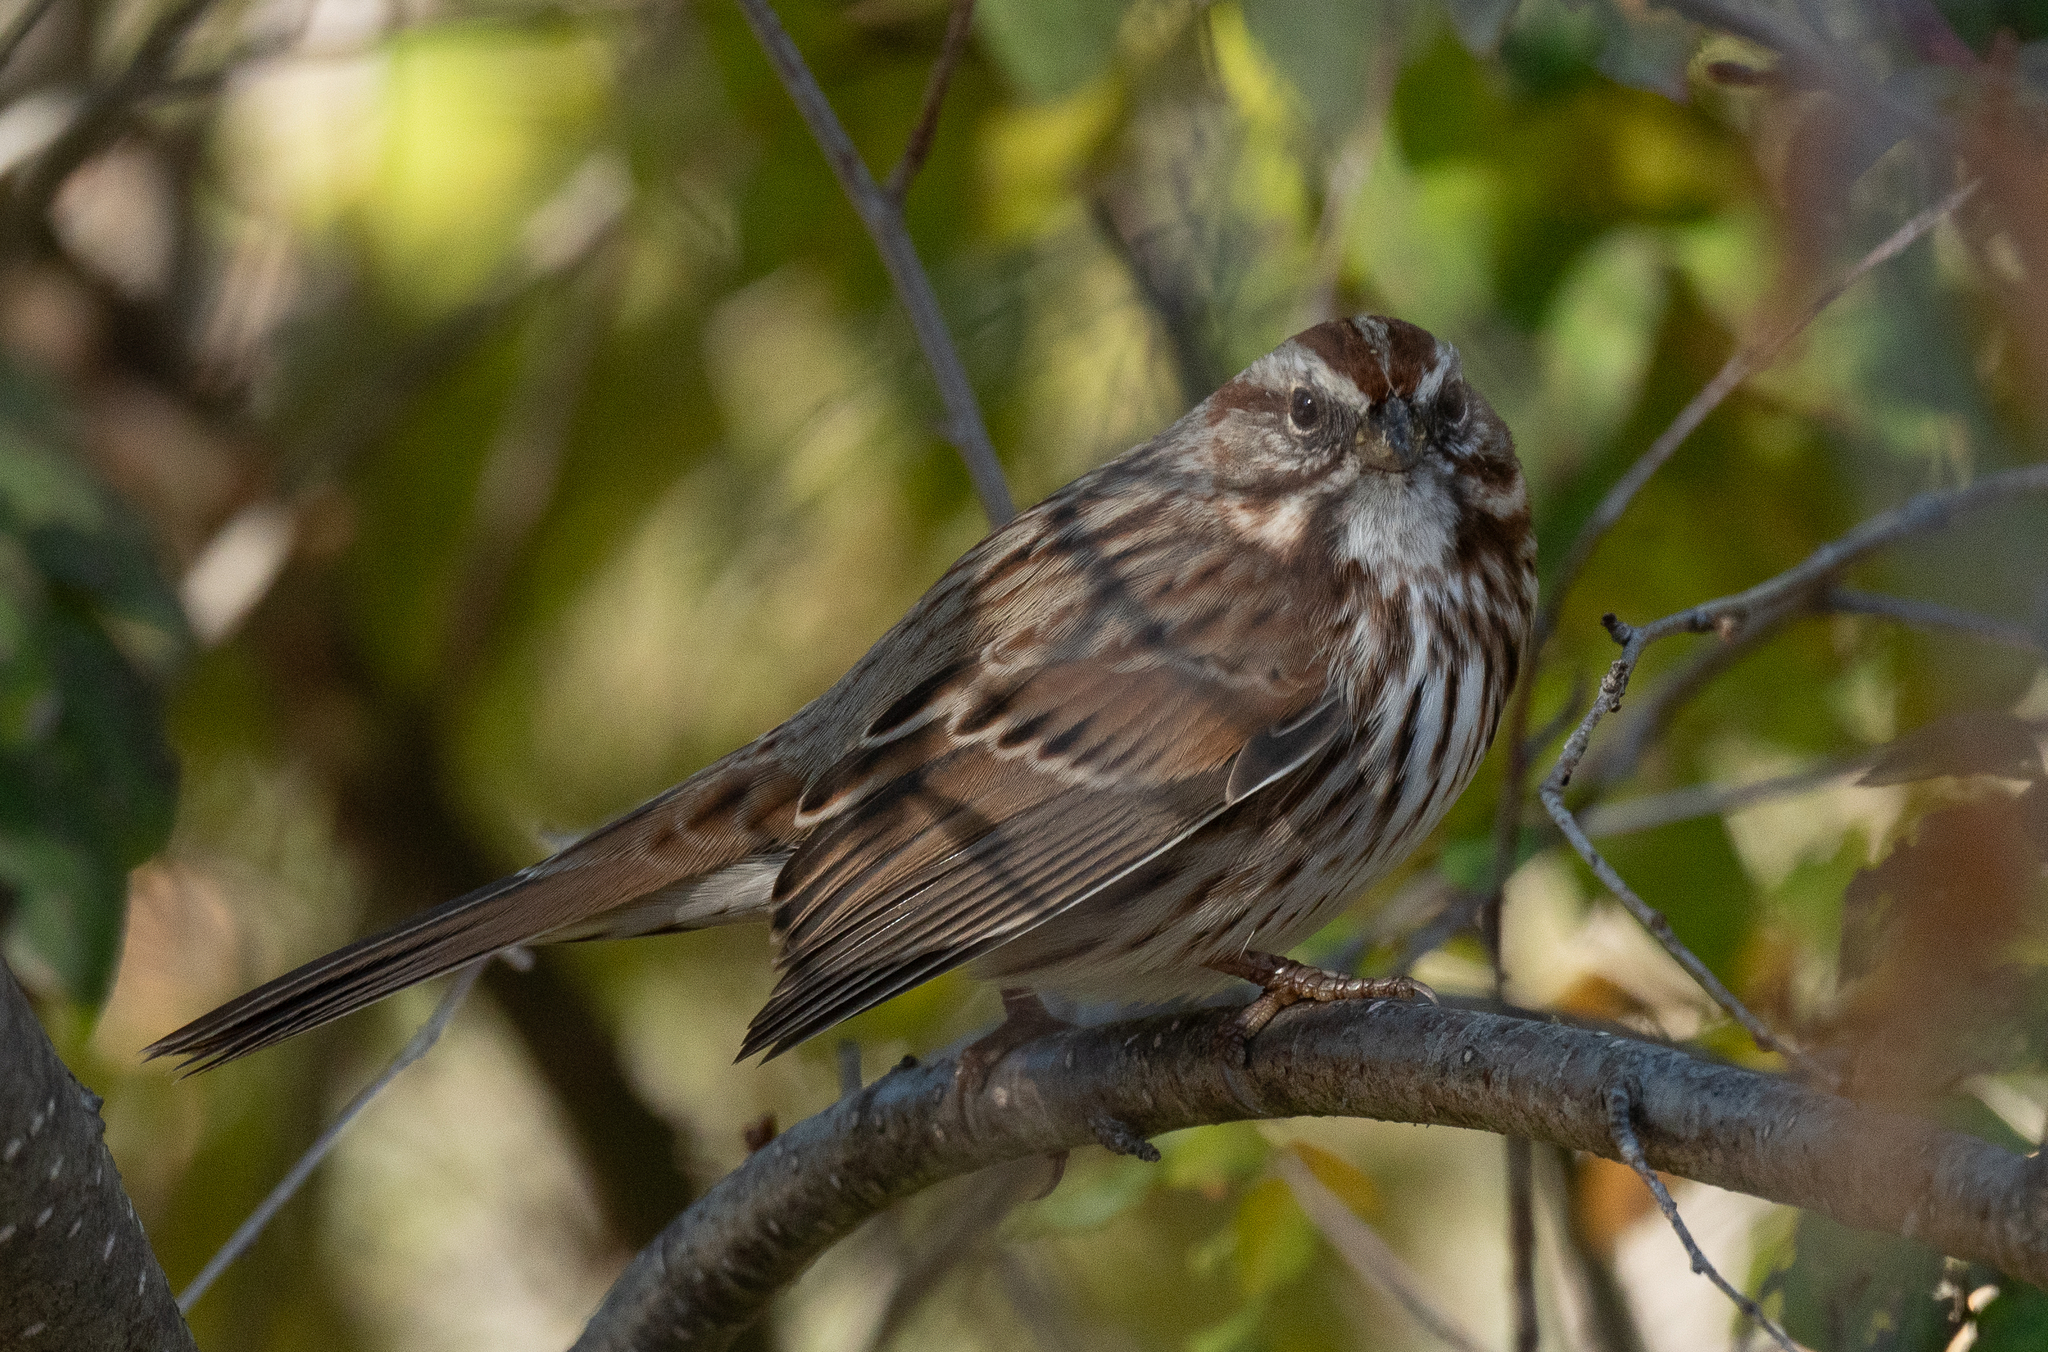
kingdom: Animalia
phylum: Chordata
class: Aves
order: Passeriformes
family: Passerellidae
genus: Melospiza
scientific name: Melospiza melodia
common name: Song sparrow
